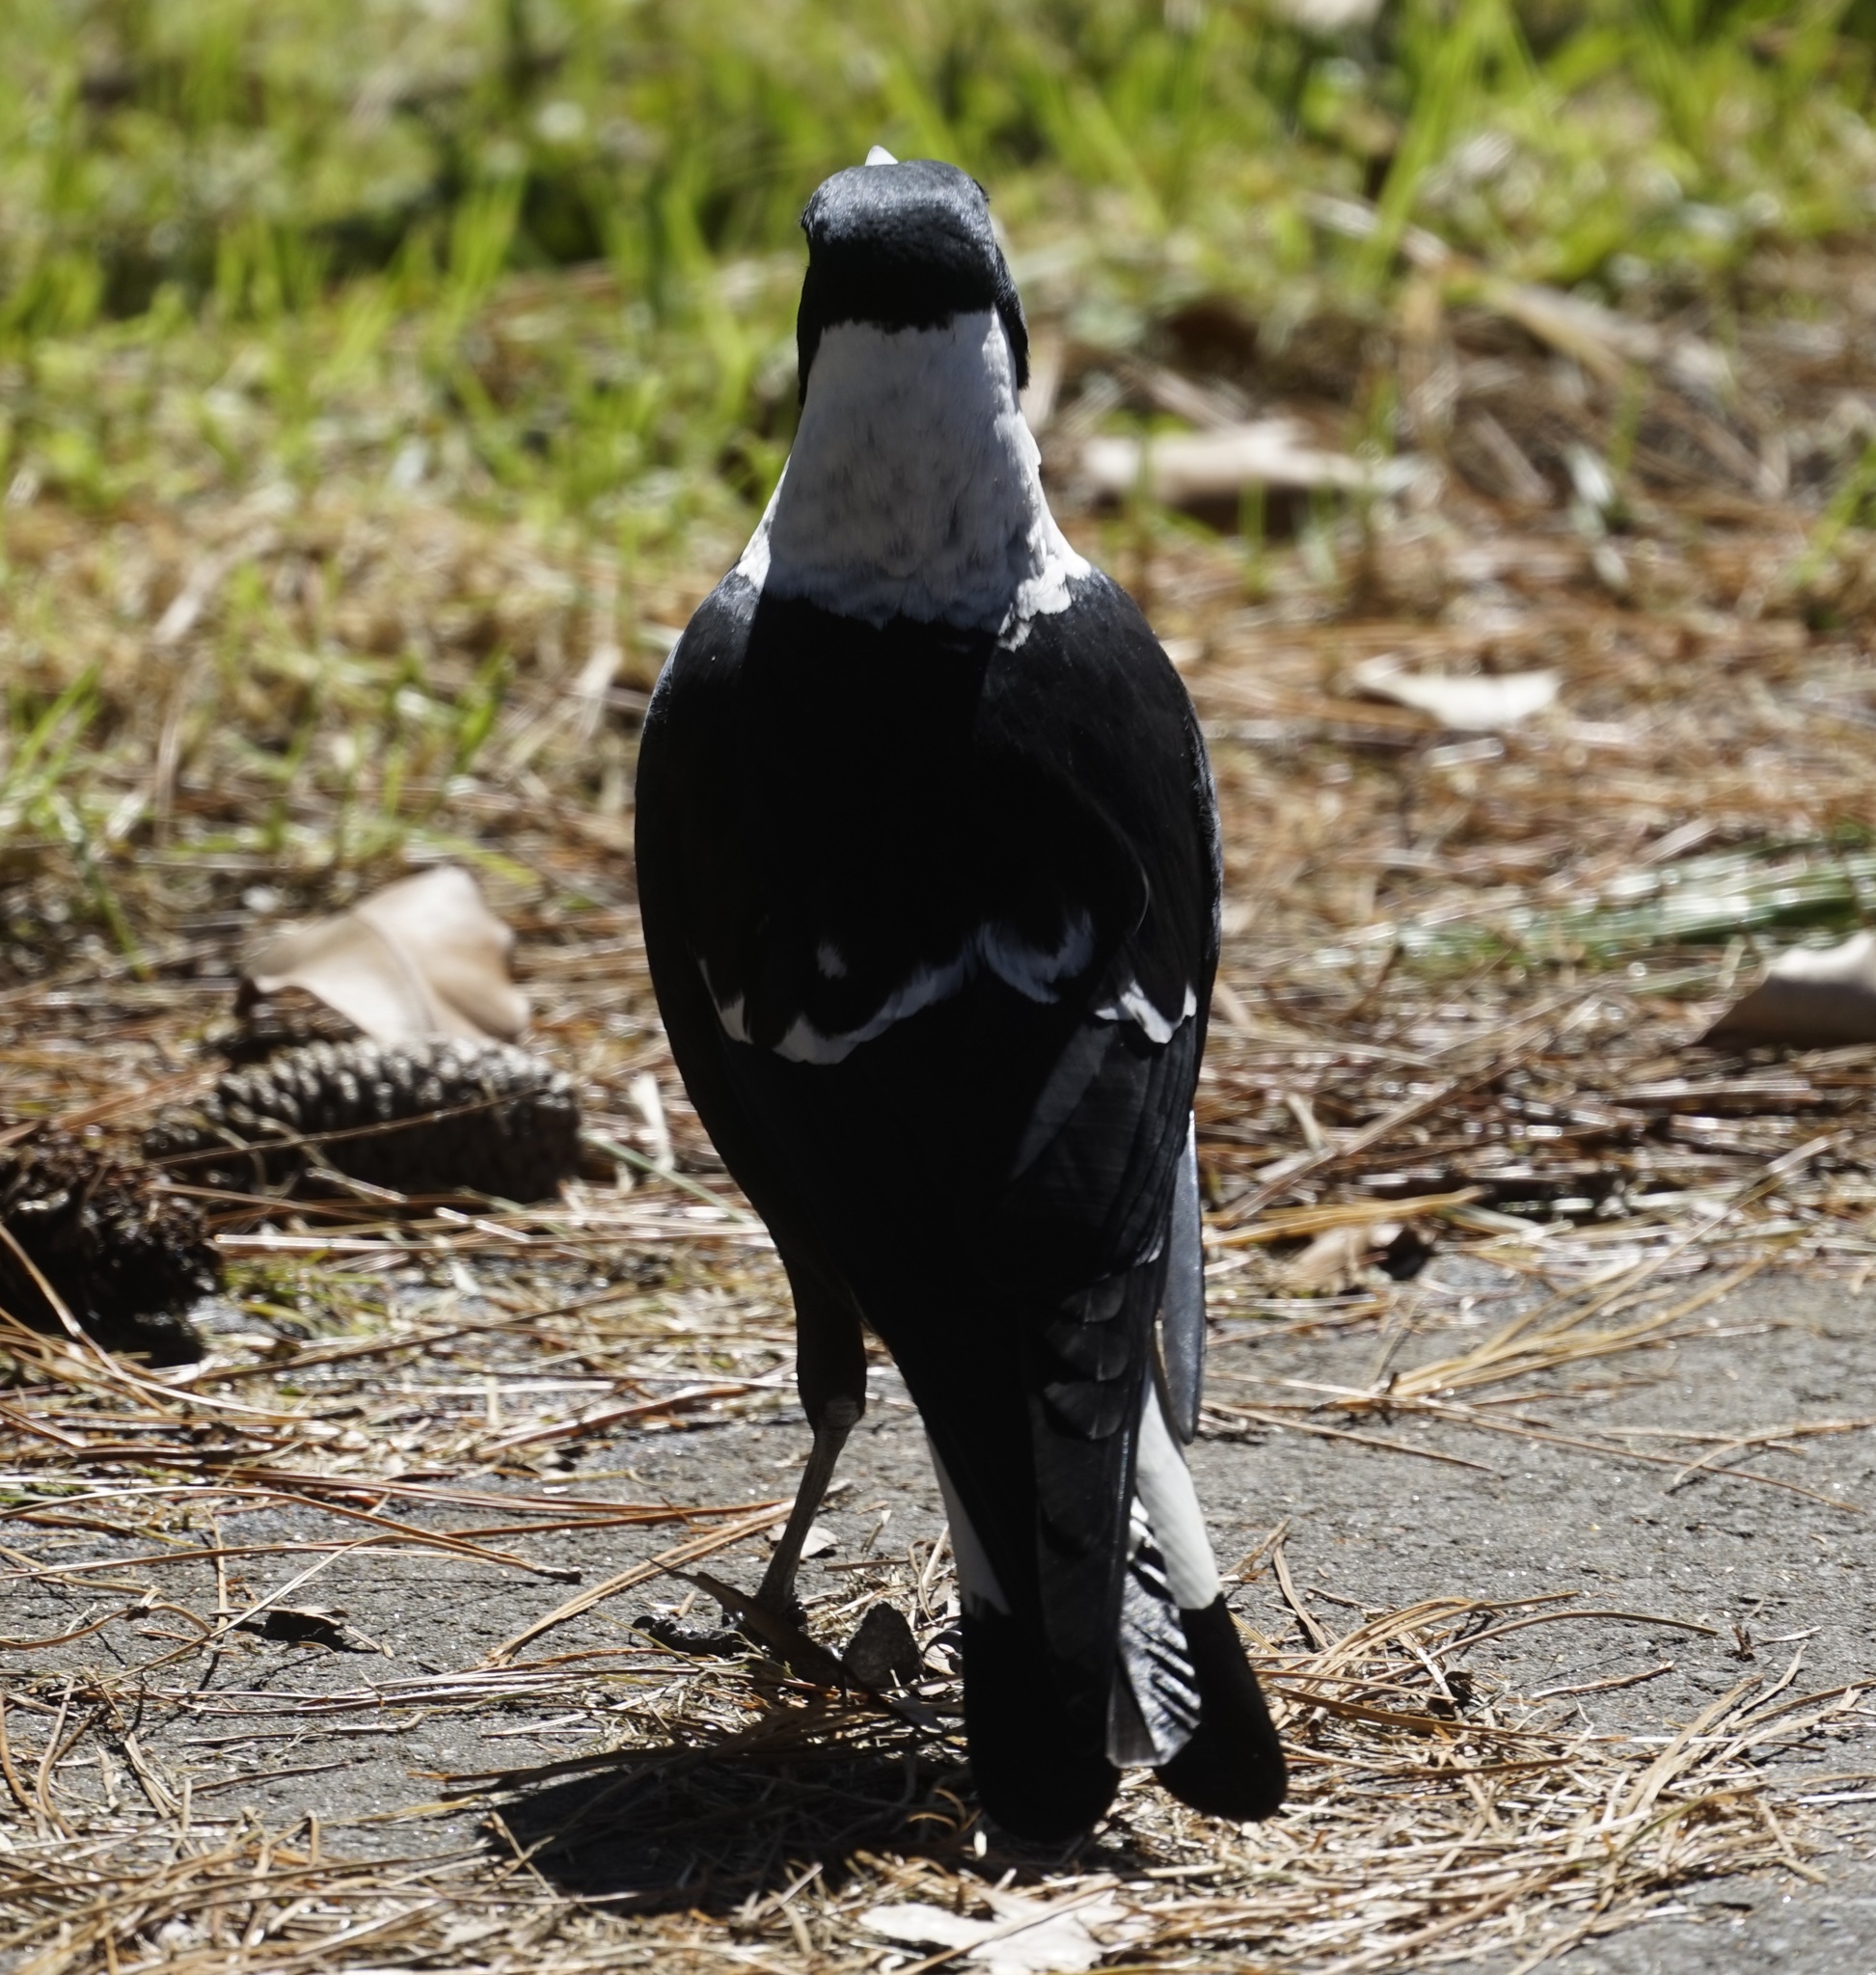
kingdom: Animalia
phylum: Chordata
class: Aves
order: Passeriformes
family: Cracticidae
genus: Gymnorhina
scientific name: Gymnorhina tibicen
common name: Australian magpie
